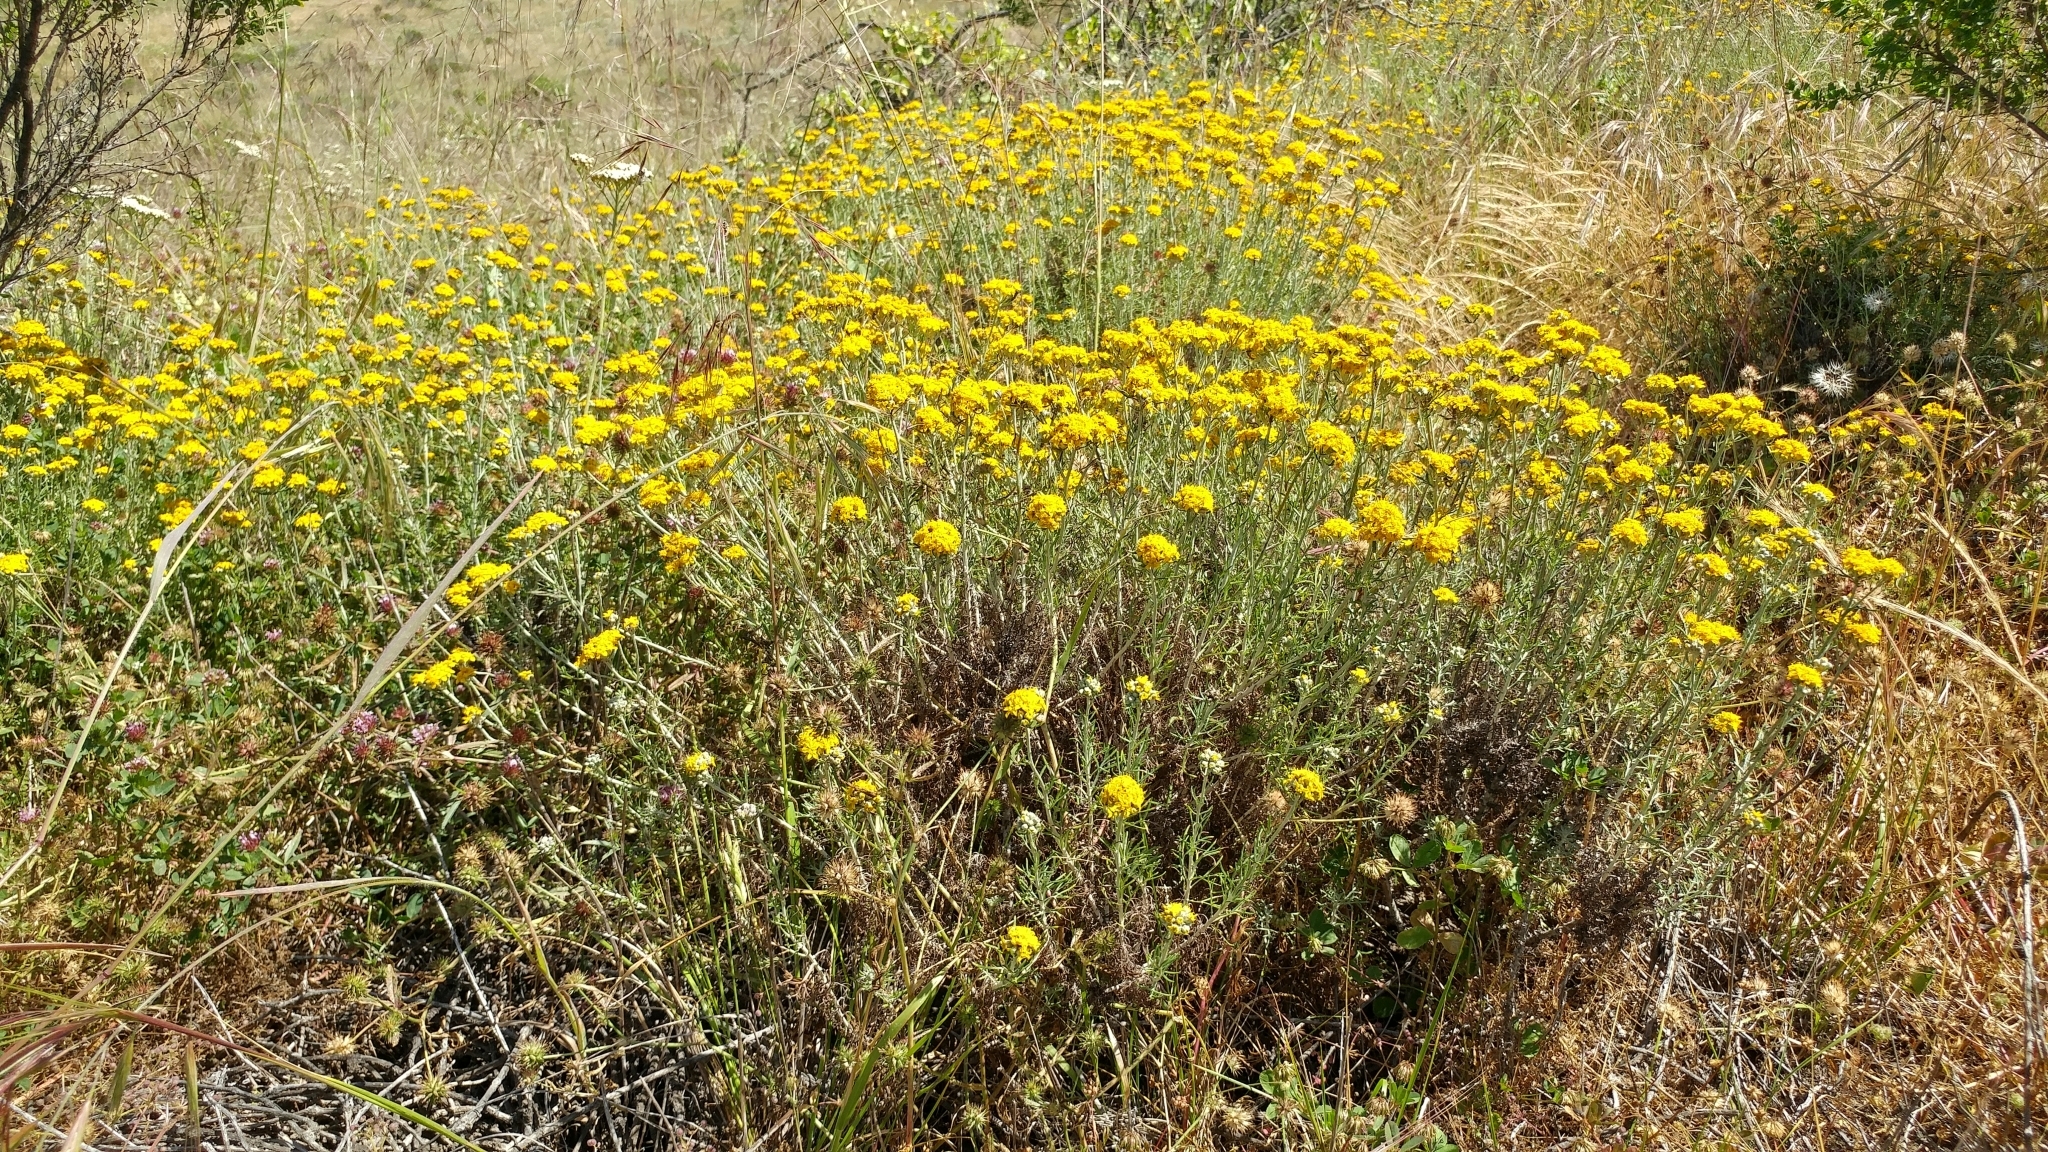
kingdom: Plantae
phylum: Tracheophyta
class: Magnoliopsida
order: Asterales
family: Asteraceae
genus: Eriophyllum
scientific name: Eriophyllum confertiflorum
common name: Golden-yarrow
